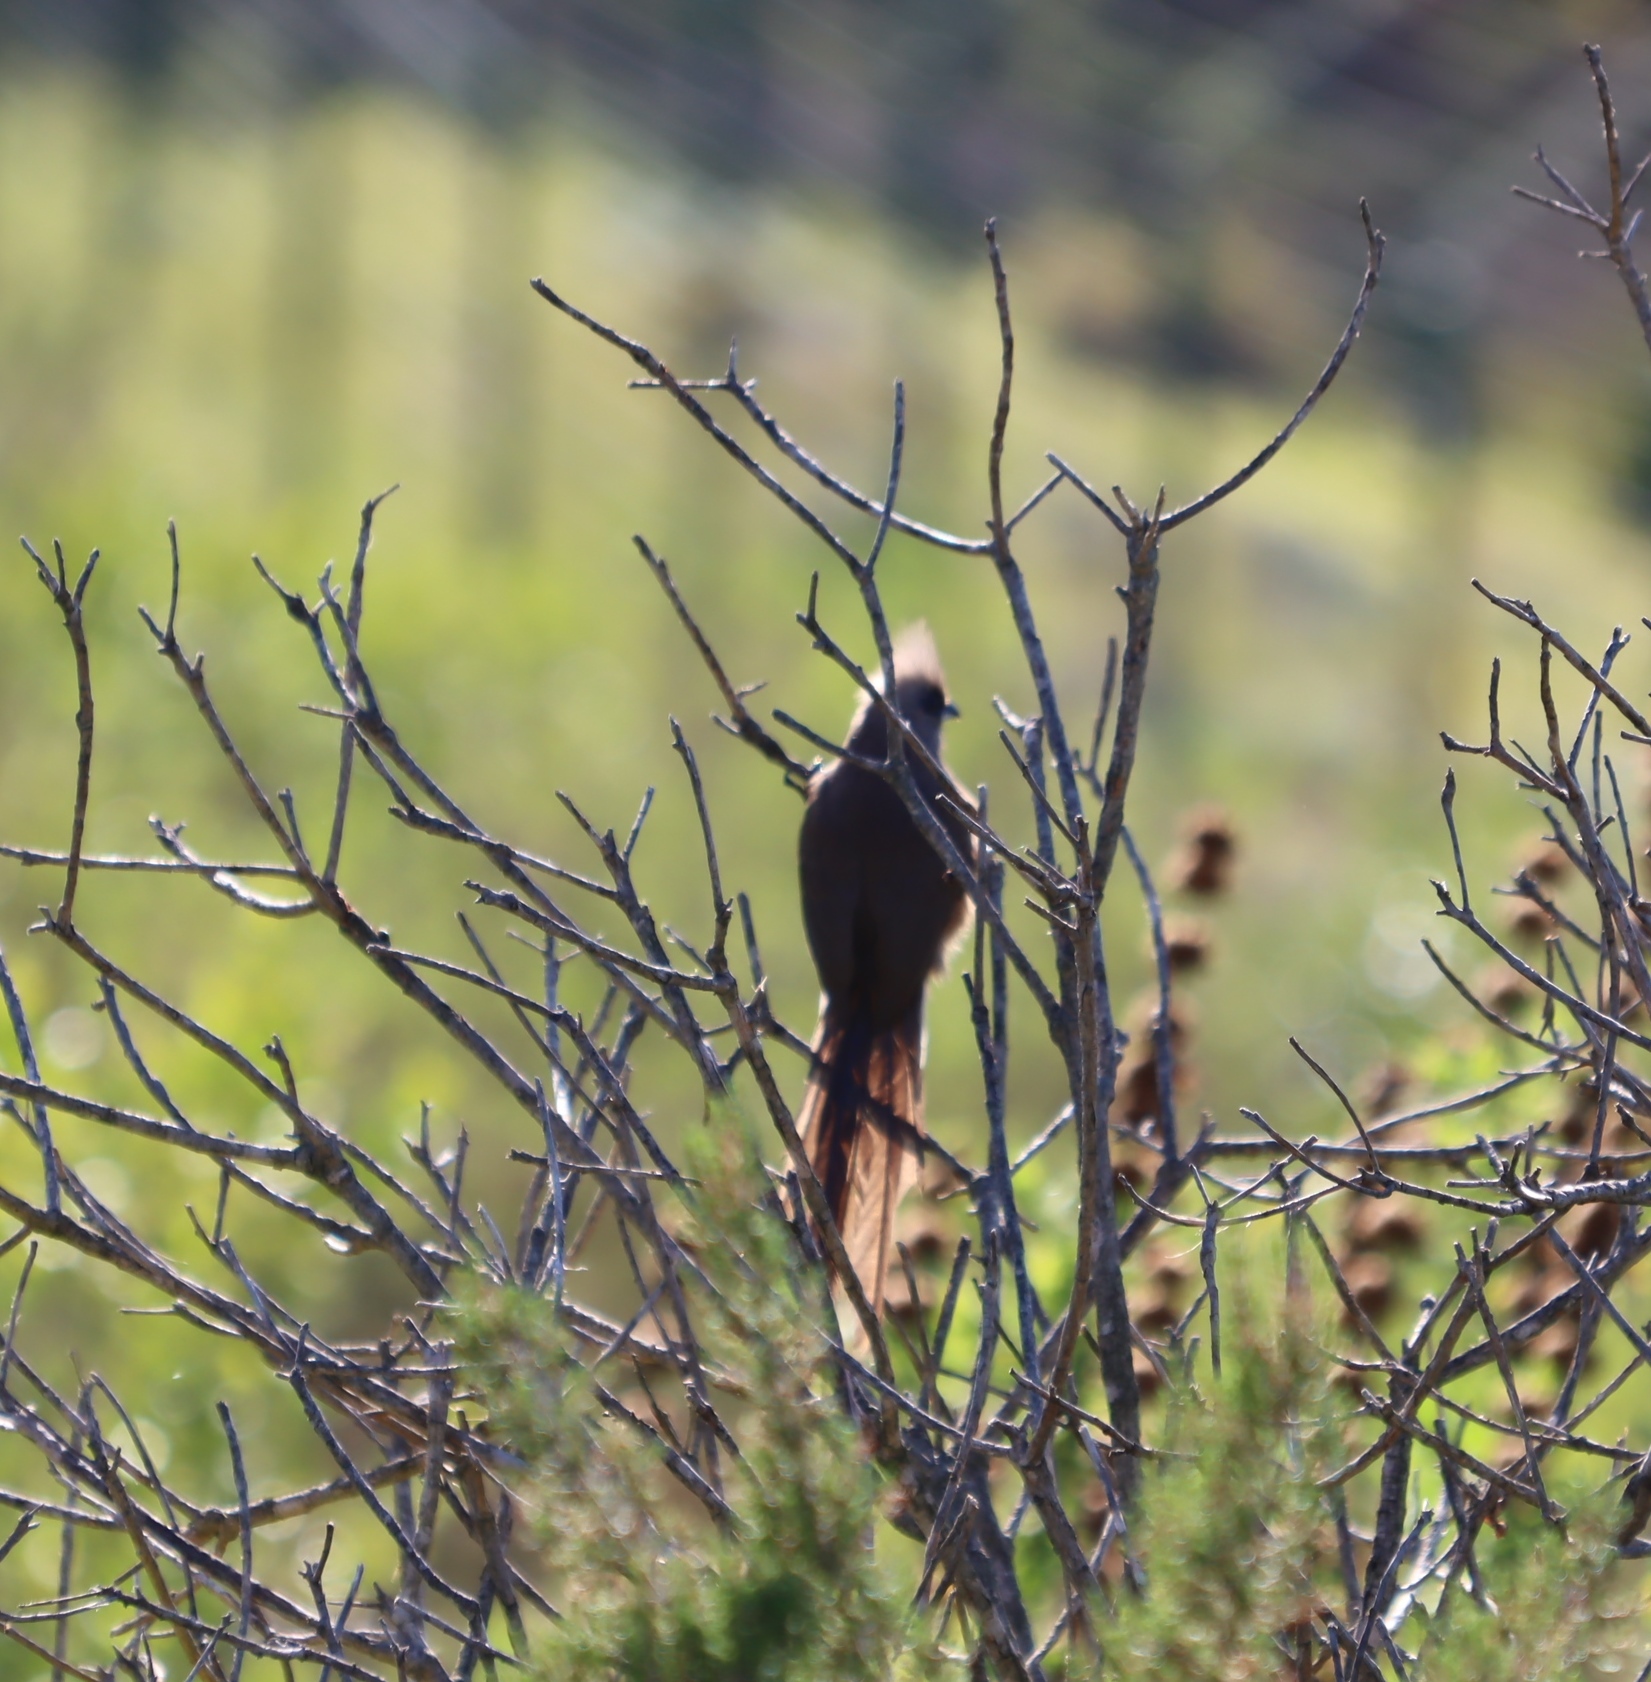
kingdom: Animalia
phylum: Chordata
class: Aves
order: Coliiformes
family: Coliidae
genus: Colius
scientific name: Colius striatus
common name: Speckled mousebird
